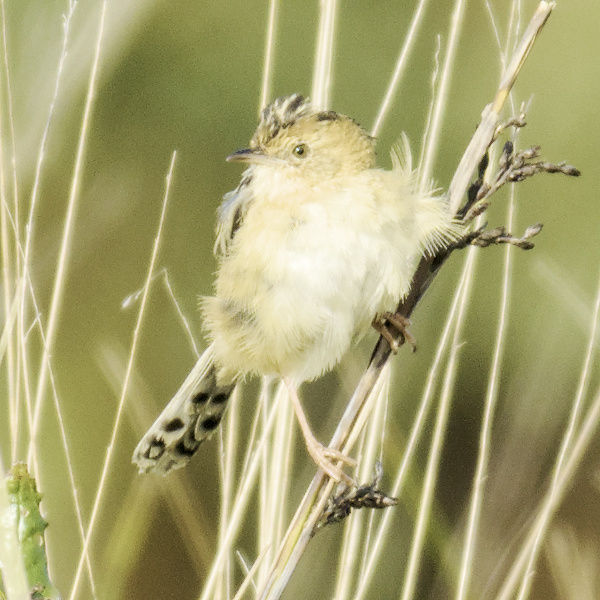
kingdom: Animalia
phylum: Chordata
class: Aves
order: Passeriformes
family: Cisticolidae
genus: Cisticola
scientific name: Cisticola exilis
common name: Golden-headed cisticola
